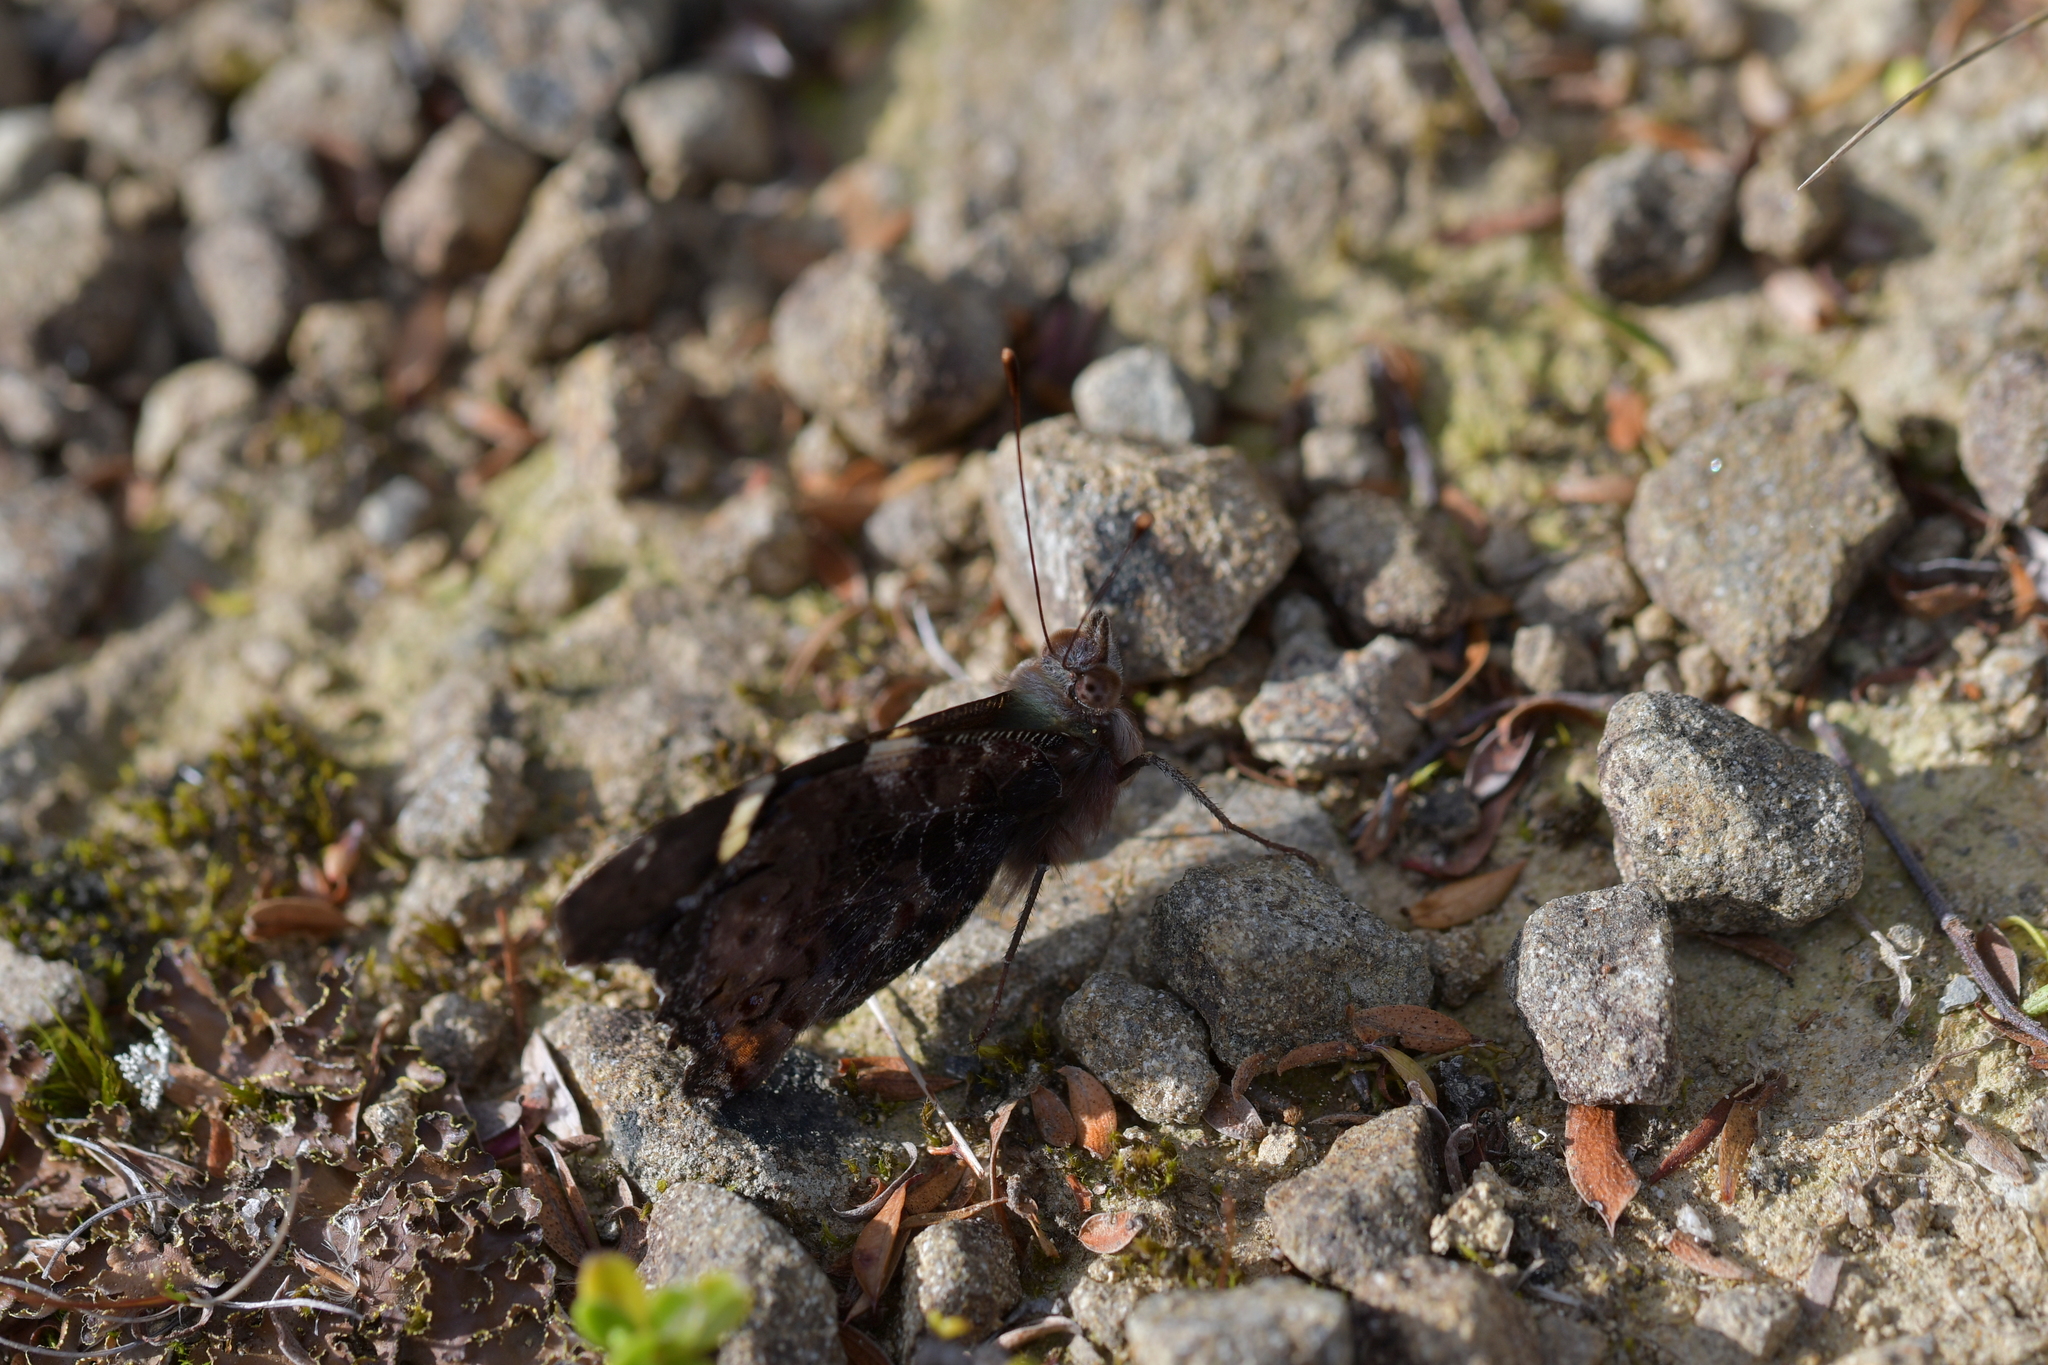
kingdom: Animalia
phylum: Arthropoda
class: Insecta
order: Lepidoptera
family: Nymphalidae
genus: Vanessa
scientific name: Vanessa itea
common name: Yellow admiral
